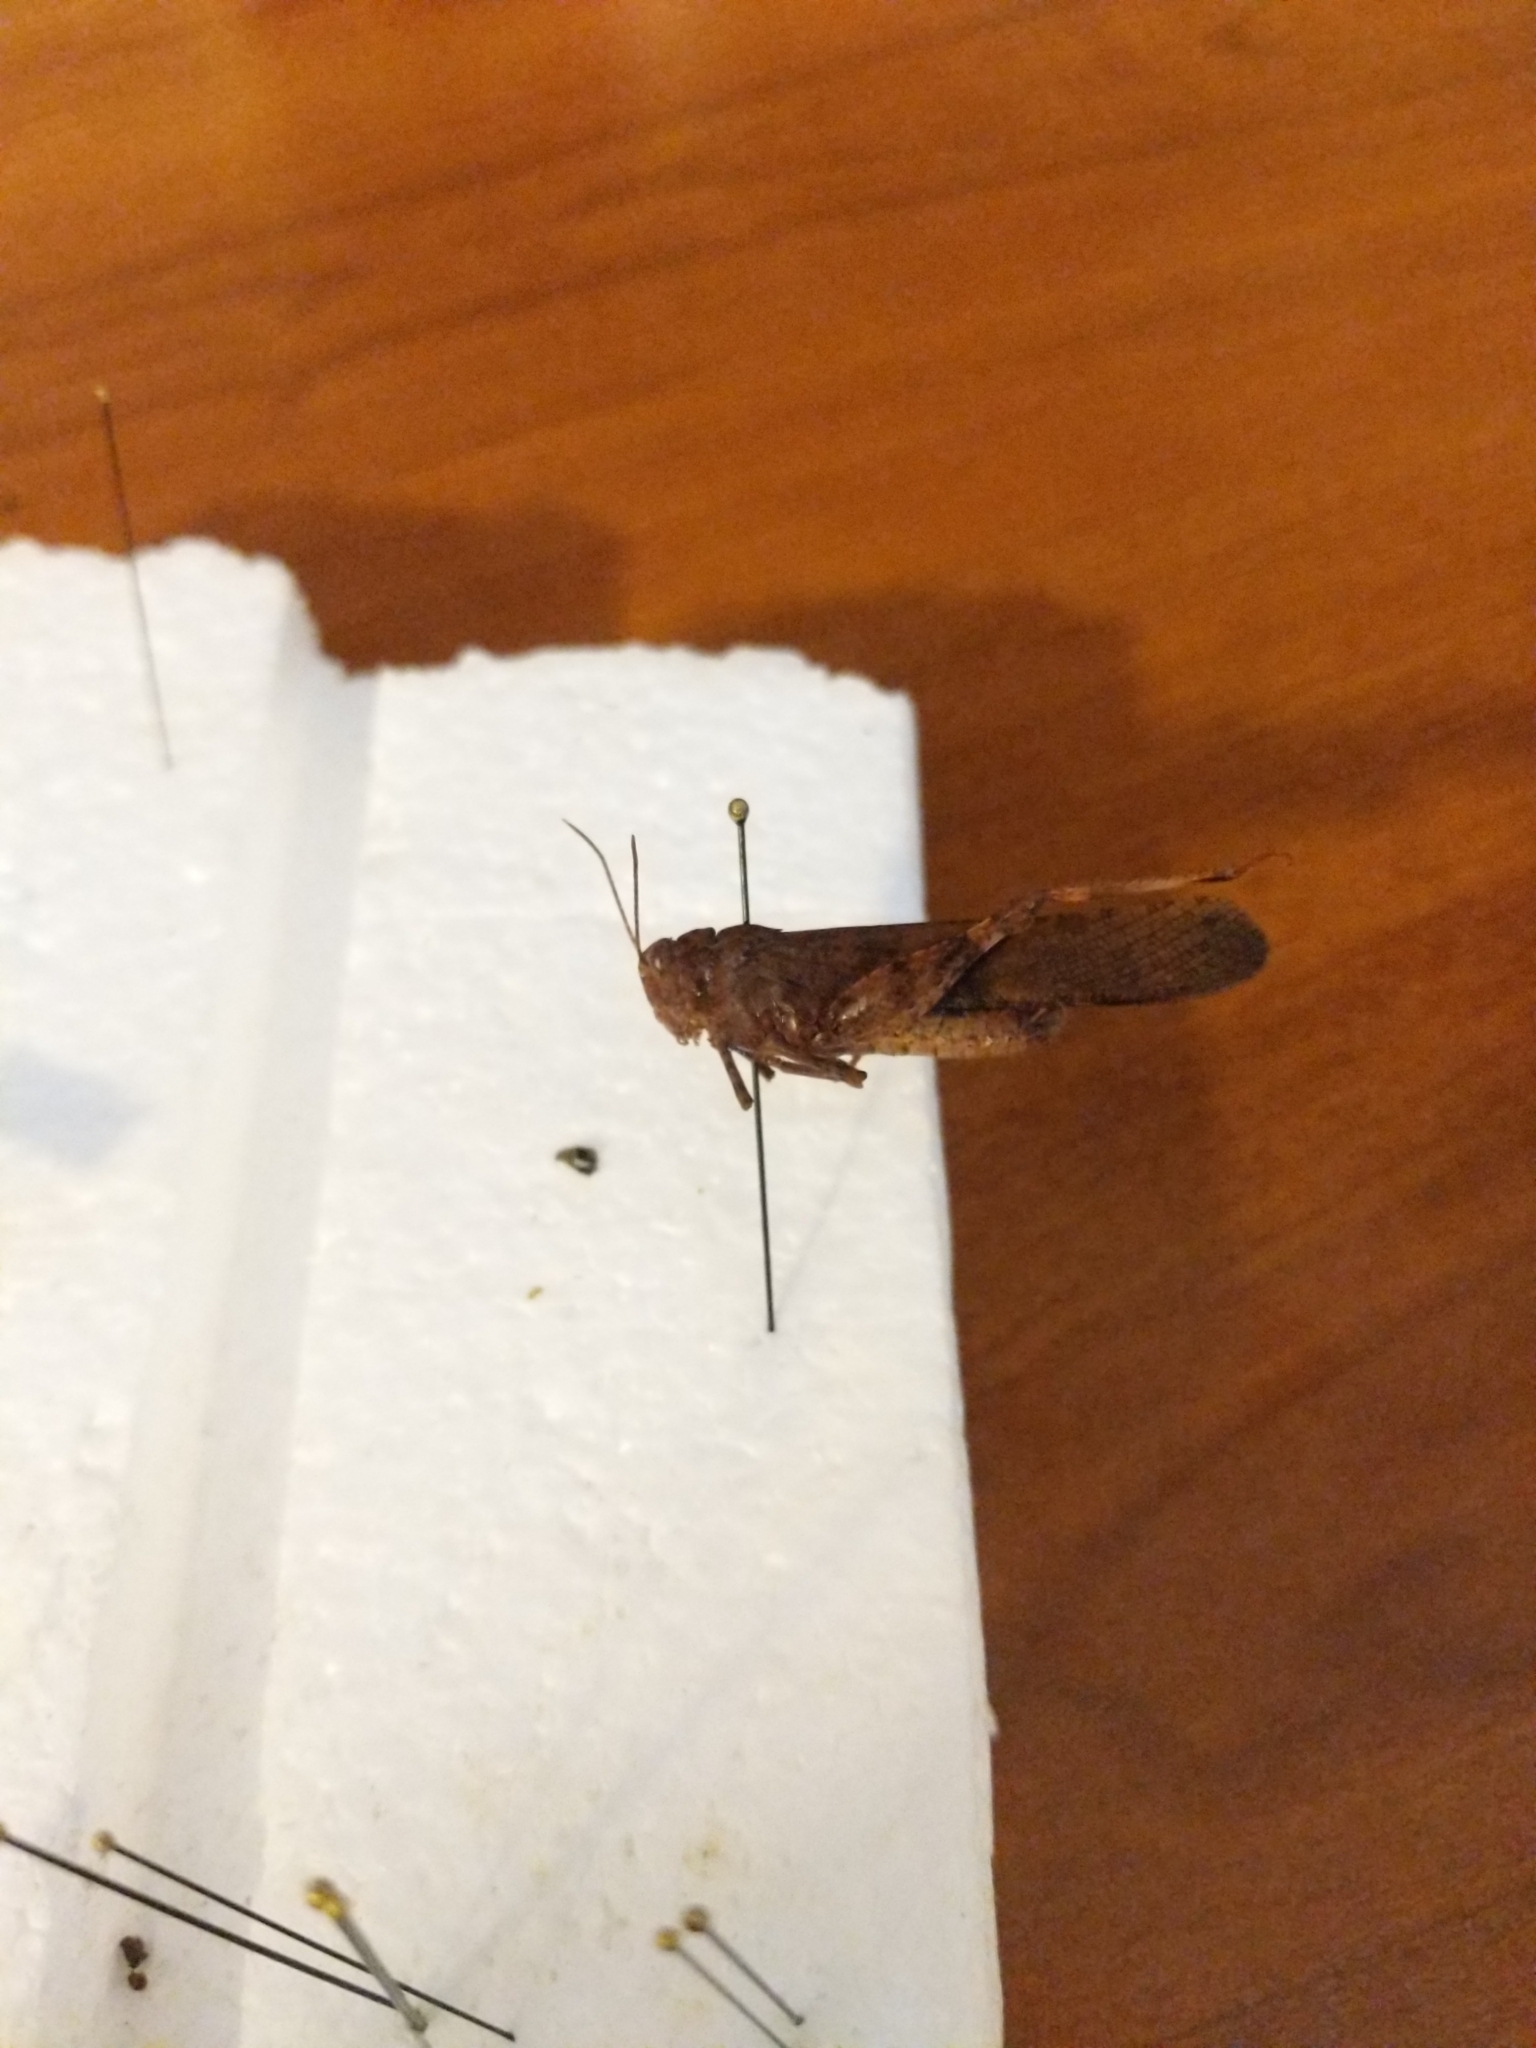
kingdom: Animalia
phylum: Arthropoda
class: Insecta
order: Orthoptera
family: Acrididae
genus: Dissosteira
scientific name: Dissosteira carolina
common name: Carolina grasshopper
